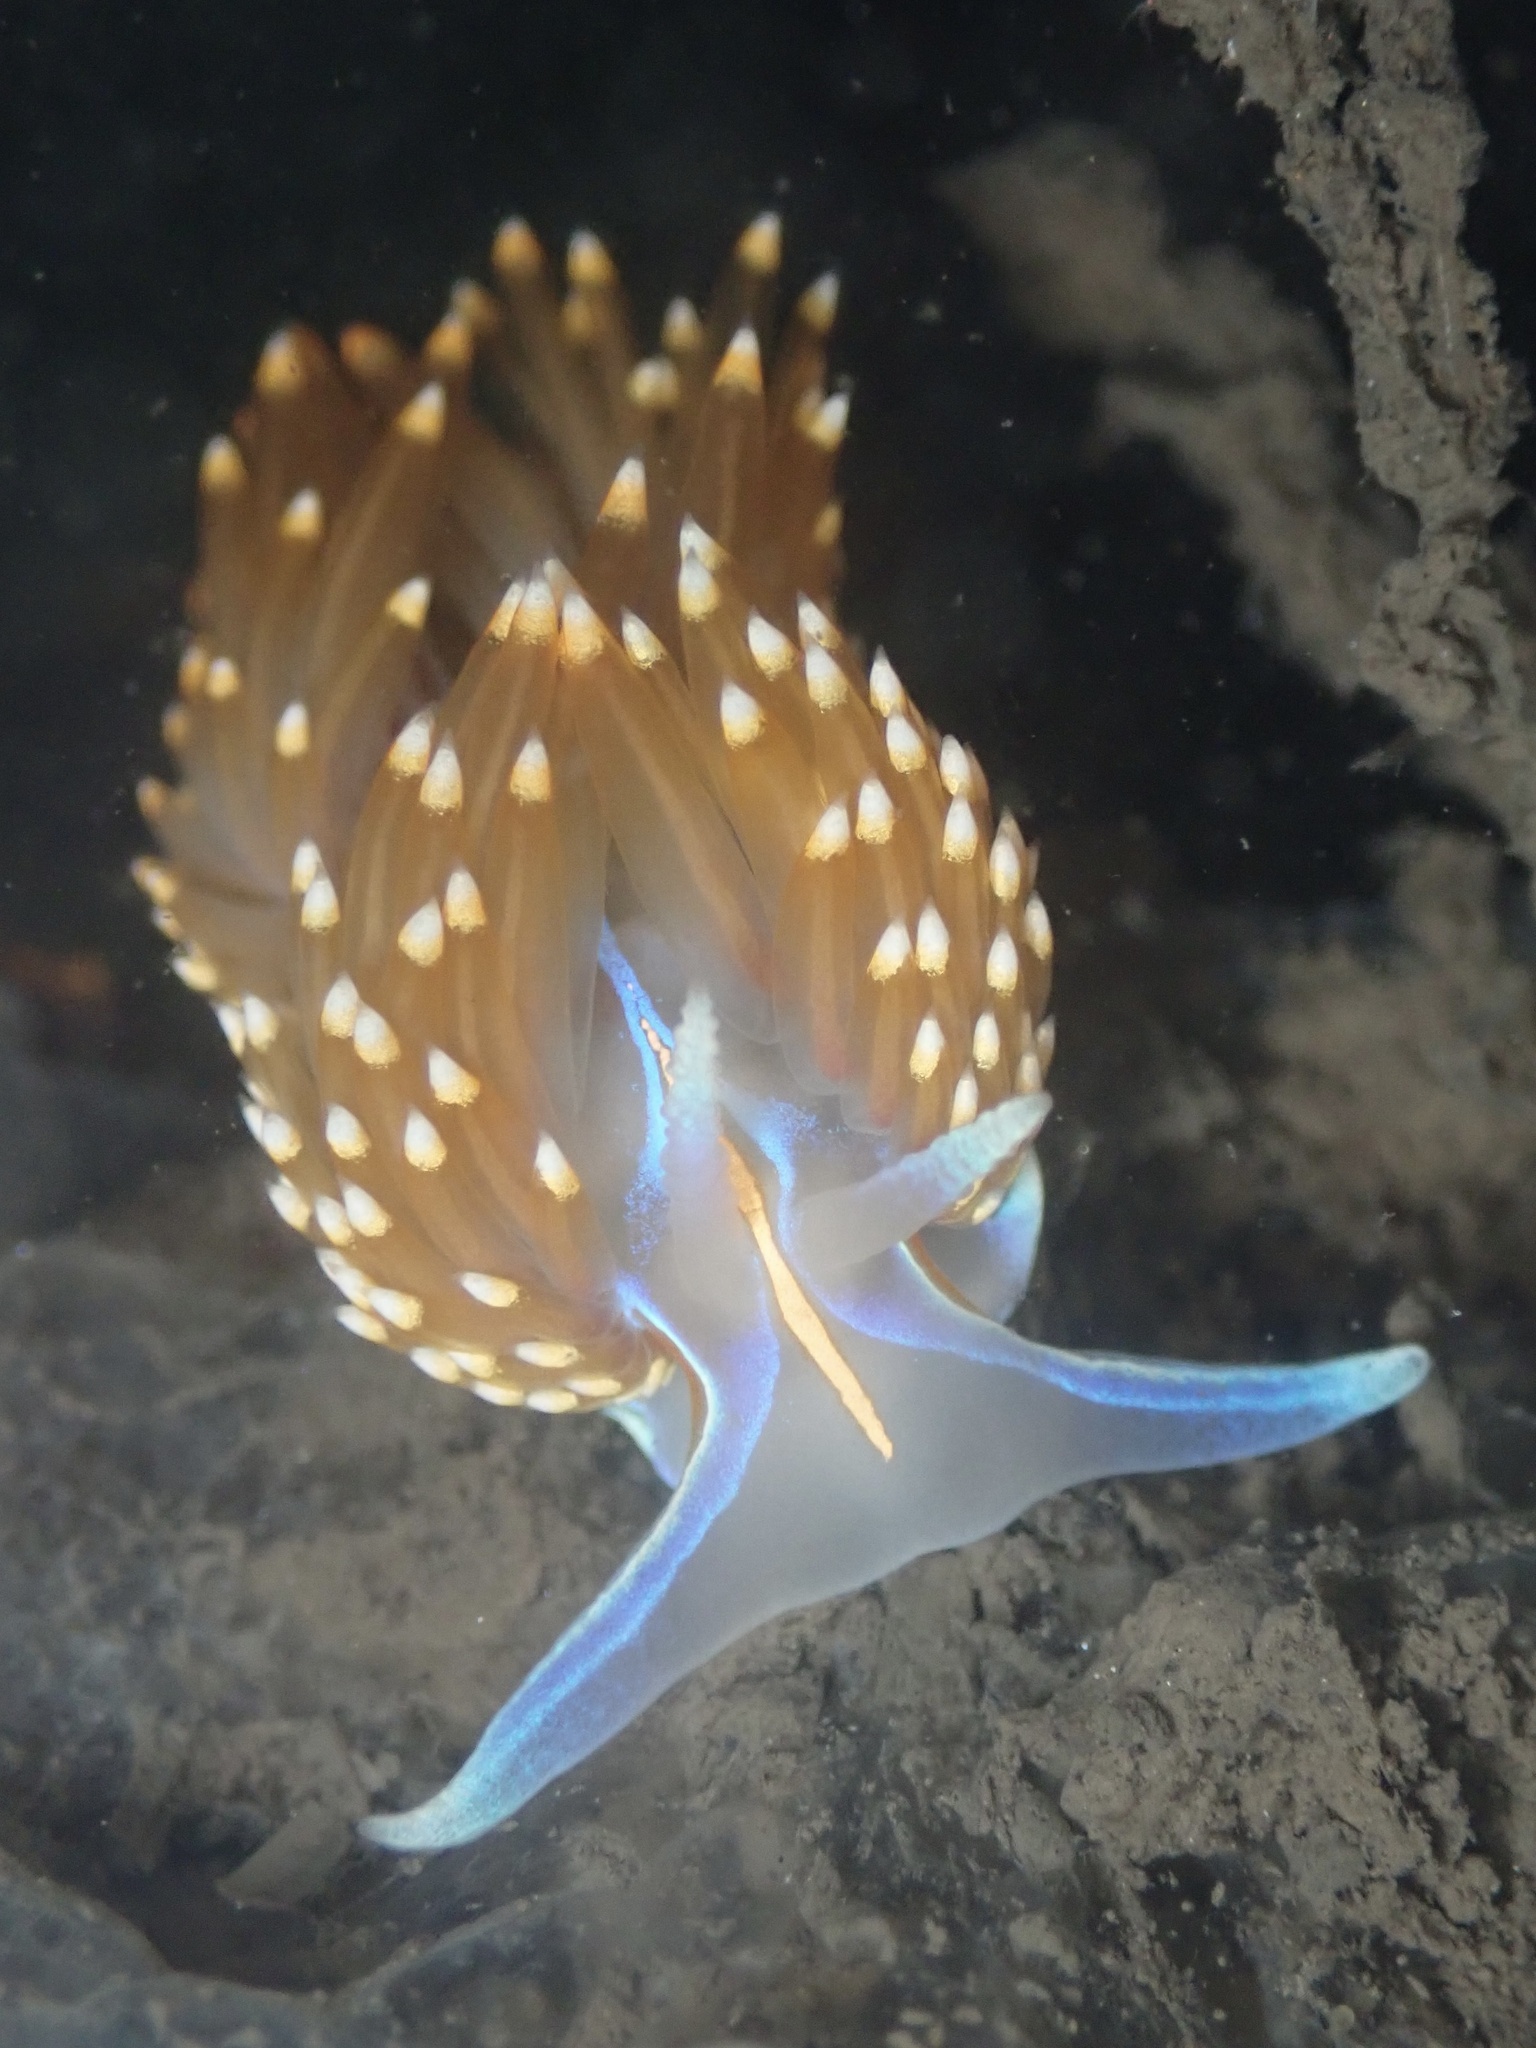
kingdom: Animalia
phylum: Mollusca
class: Gastropoda
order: Nudibranchia
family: Myrrhinidae
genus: Hermissenda
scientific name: Hermissenda opalescens
